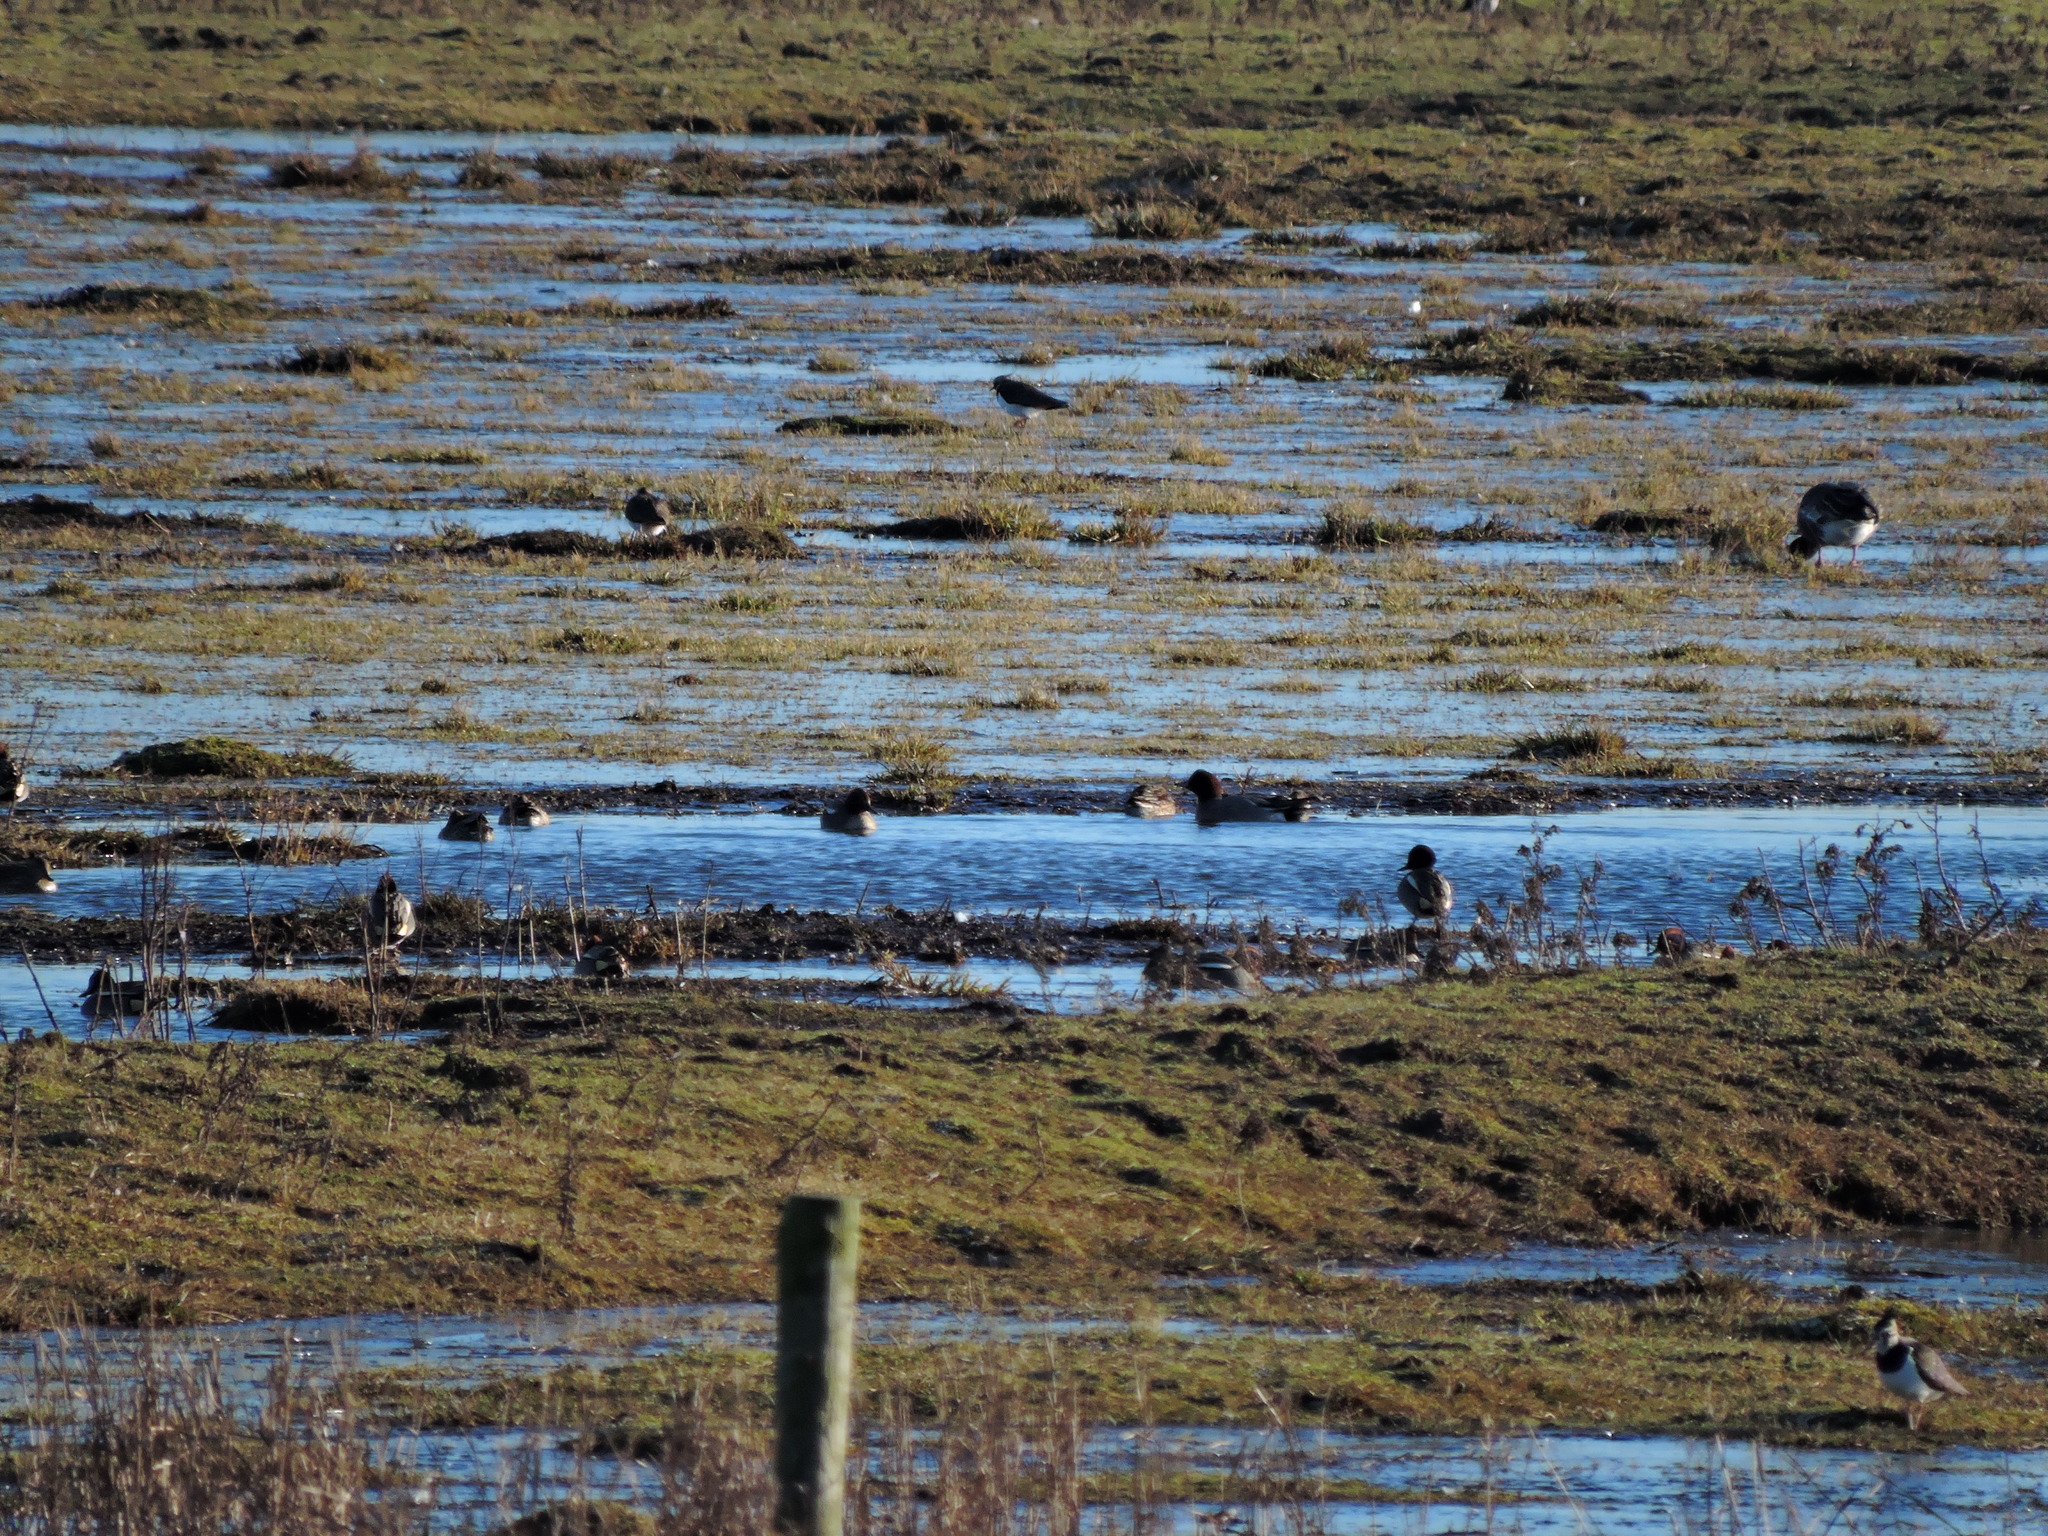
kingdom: Animalia
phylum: Chordata
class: Aves
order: Charadriiformes
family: Charadriidae
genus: Vanellus
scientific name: Vanellus vanellus
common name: Northern lapwing
